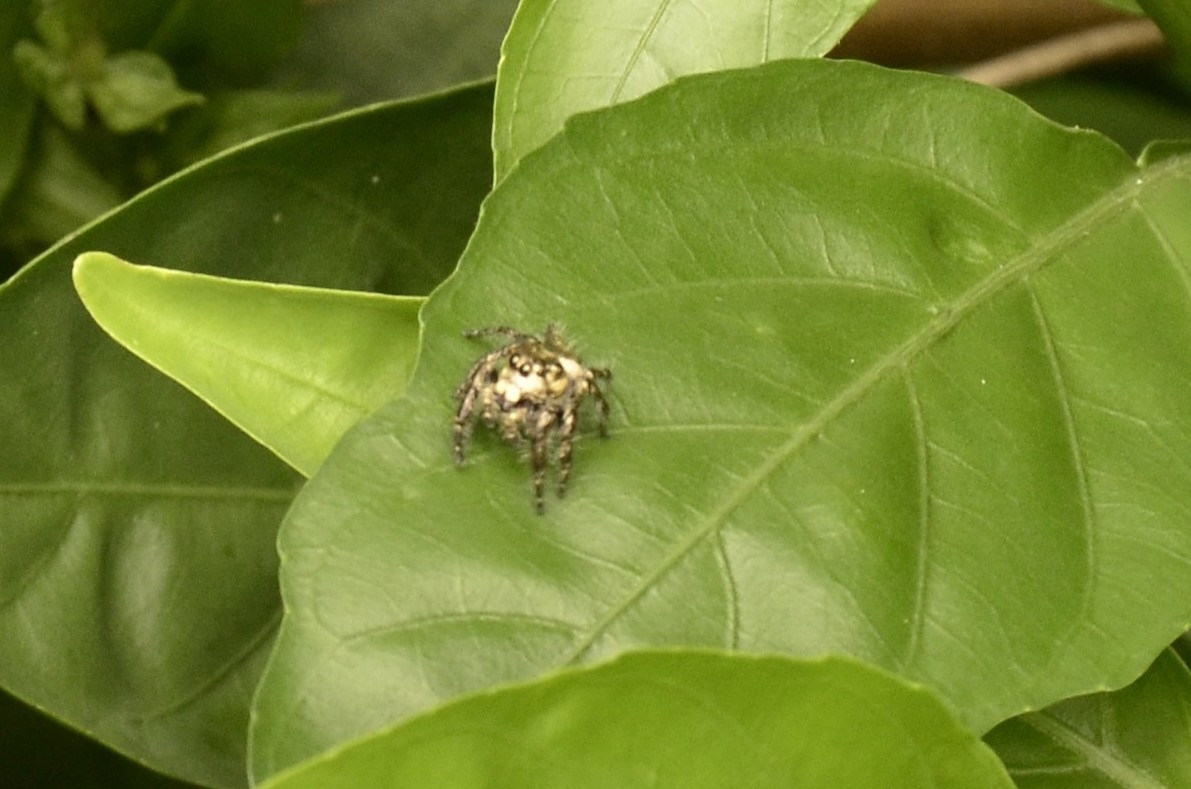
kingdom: Animalia
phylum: Arthropoda
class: Arachnida
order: Araneae
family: Salticidae
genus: Hyllus
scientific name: Hyllus semicupreus
